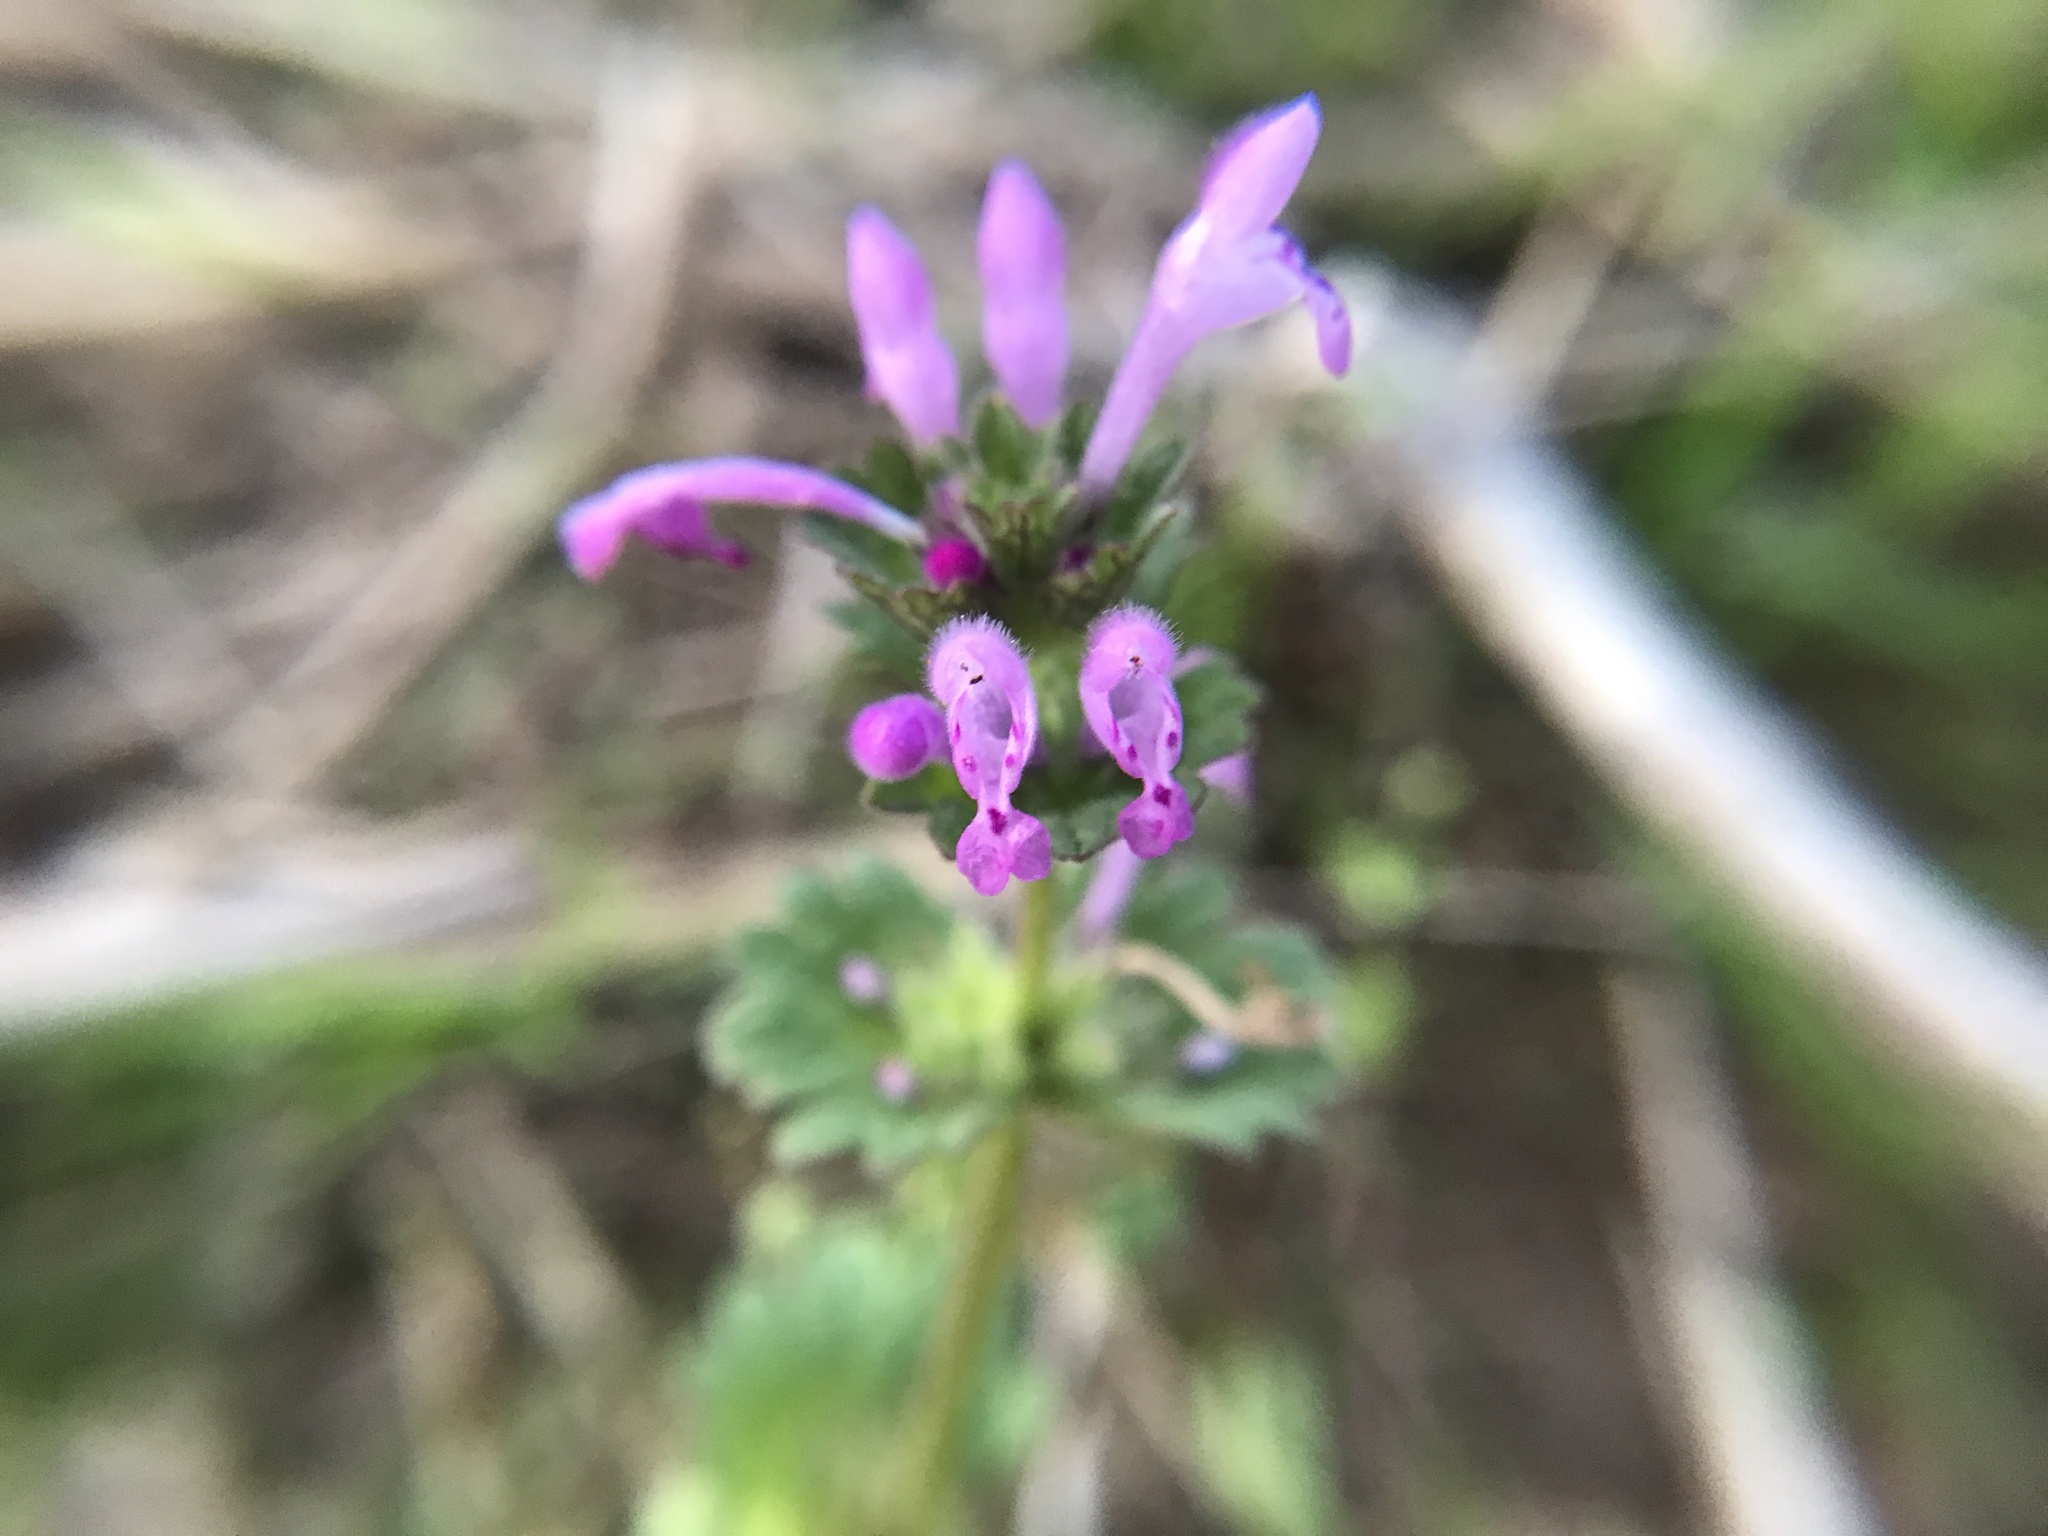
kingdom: Plantae
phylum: Tracheophyta
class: Magnoliopsida
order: Lamiales
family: Lamiaceae
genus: Lamium
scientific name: Lamium amplexicaule
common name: Henbit dead-nettle
